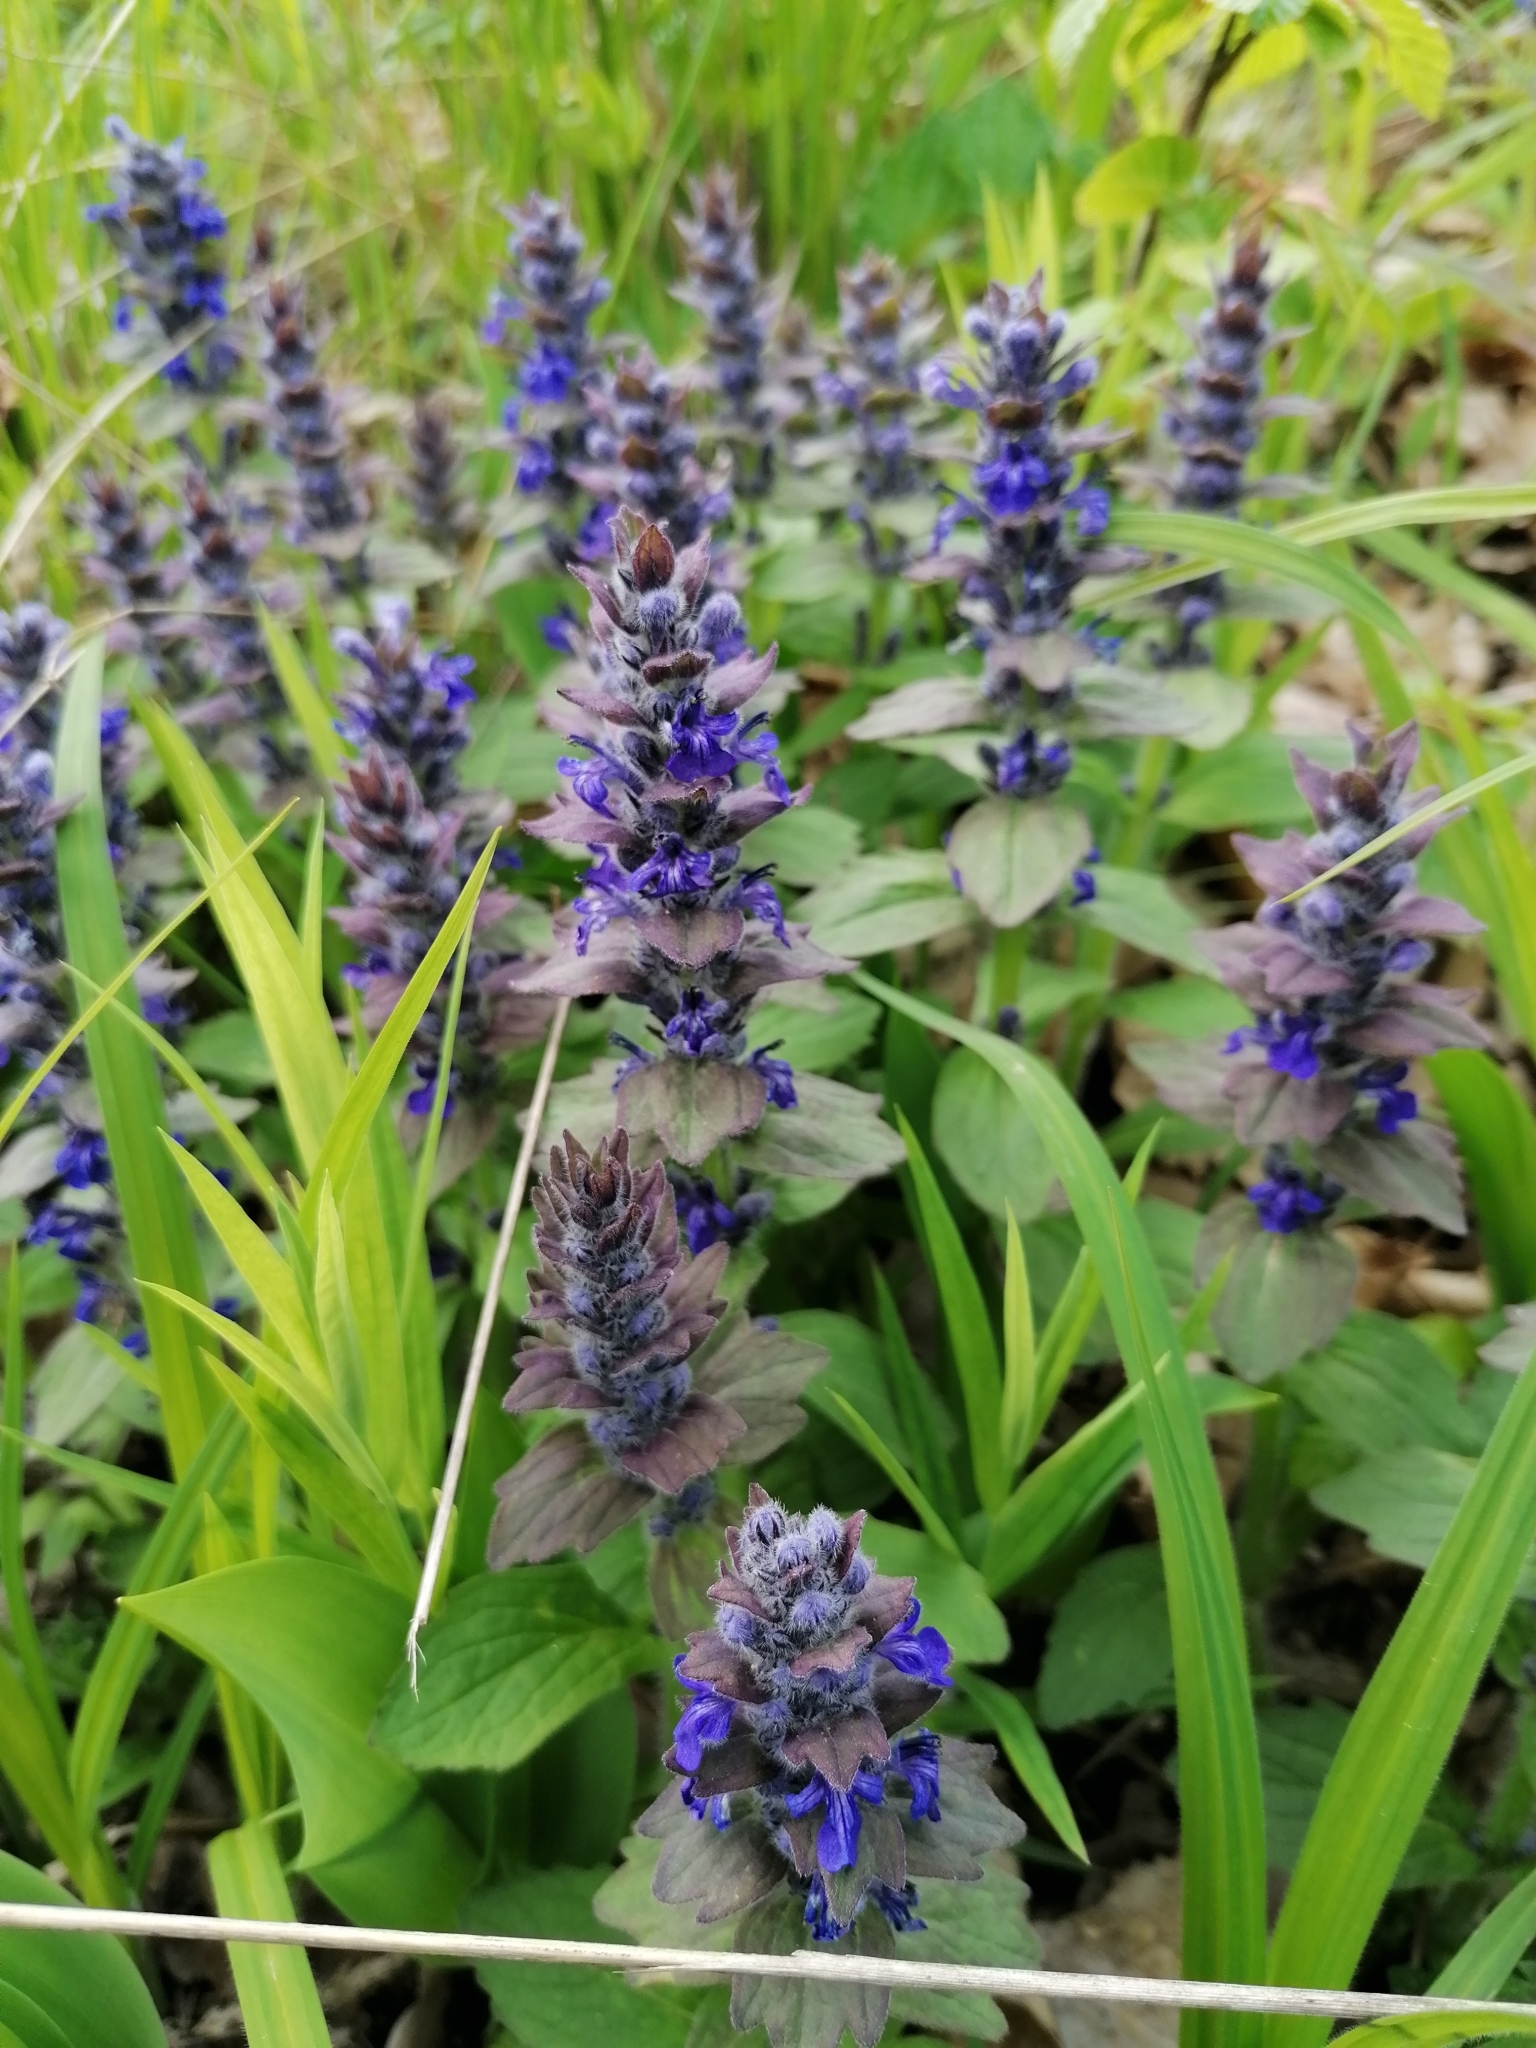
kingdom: Plantae
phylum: Tracheophyta
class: Magnoliopsida
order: Lamiales
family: Lamiaceae
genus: Ajuga
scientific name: Ajuga genevensis
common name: Blue bugle
